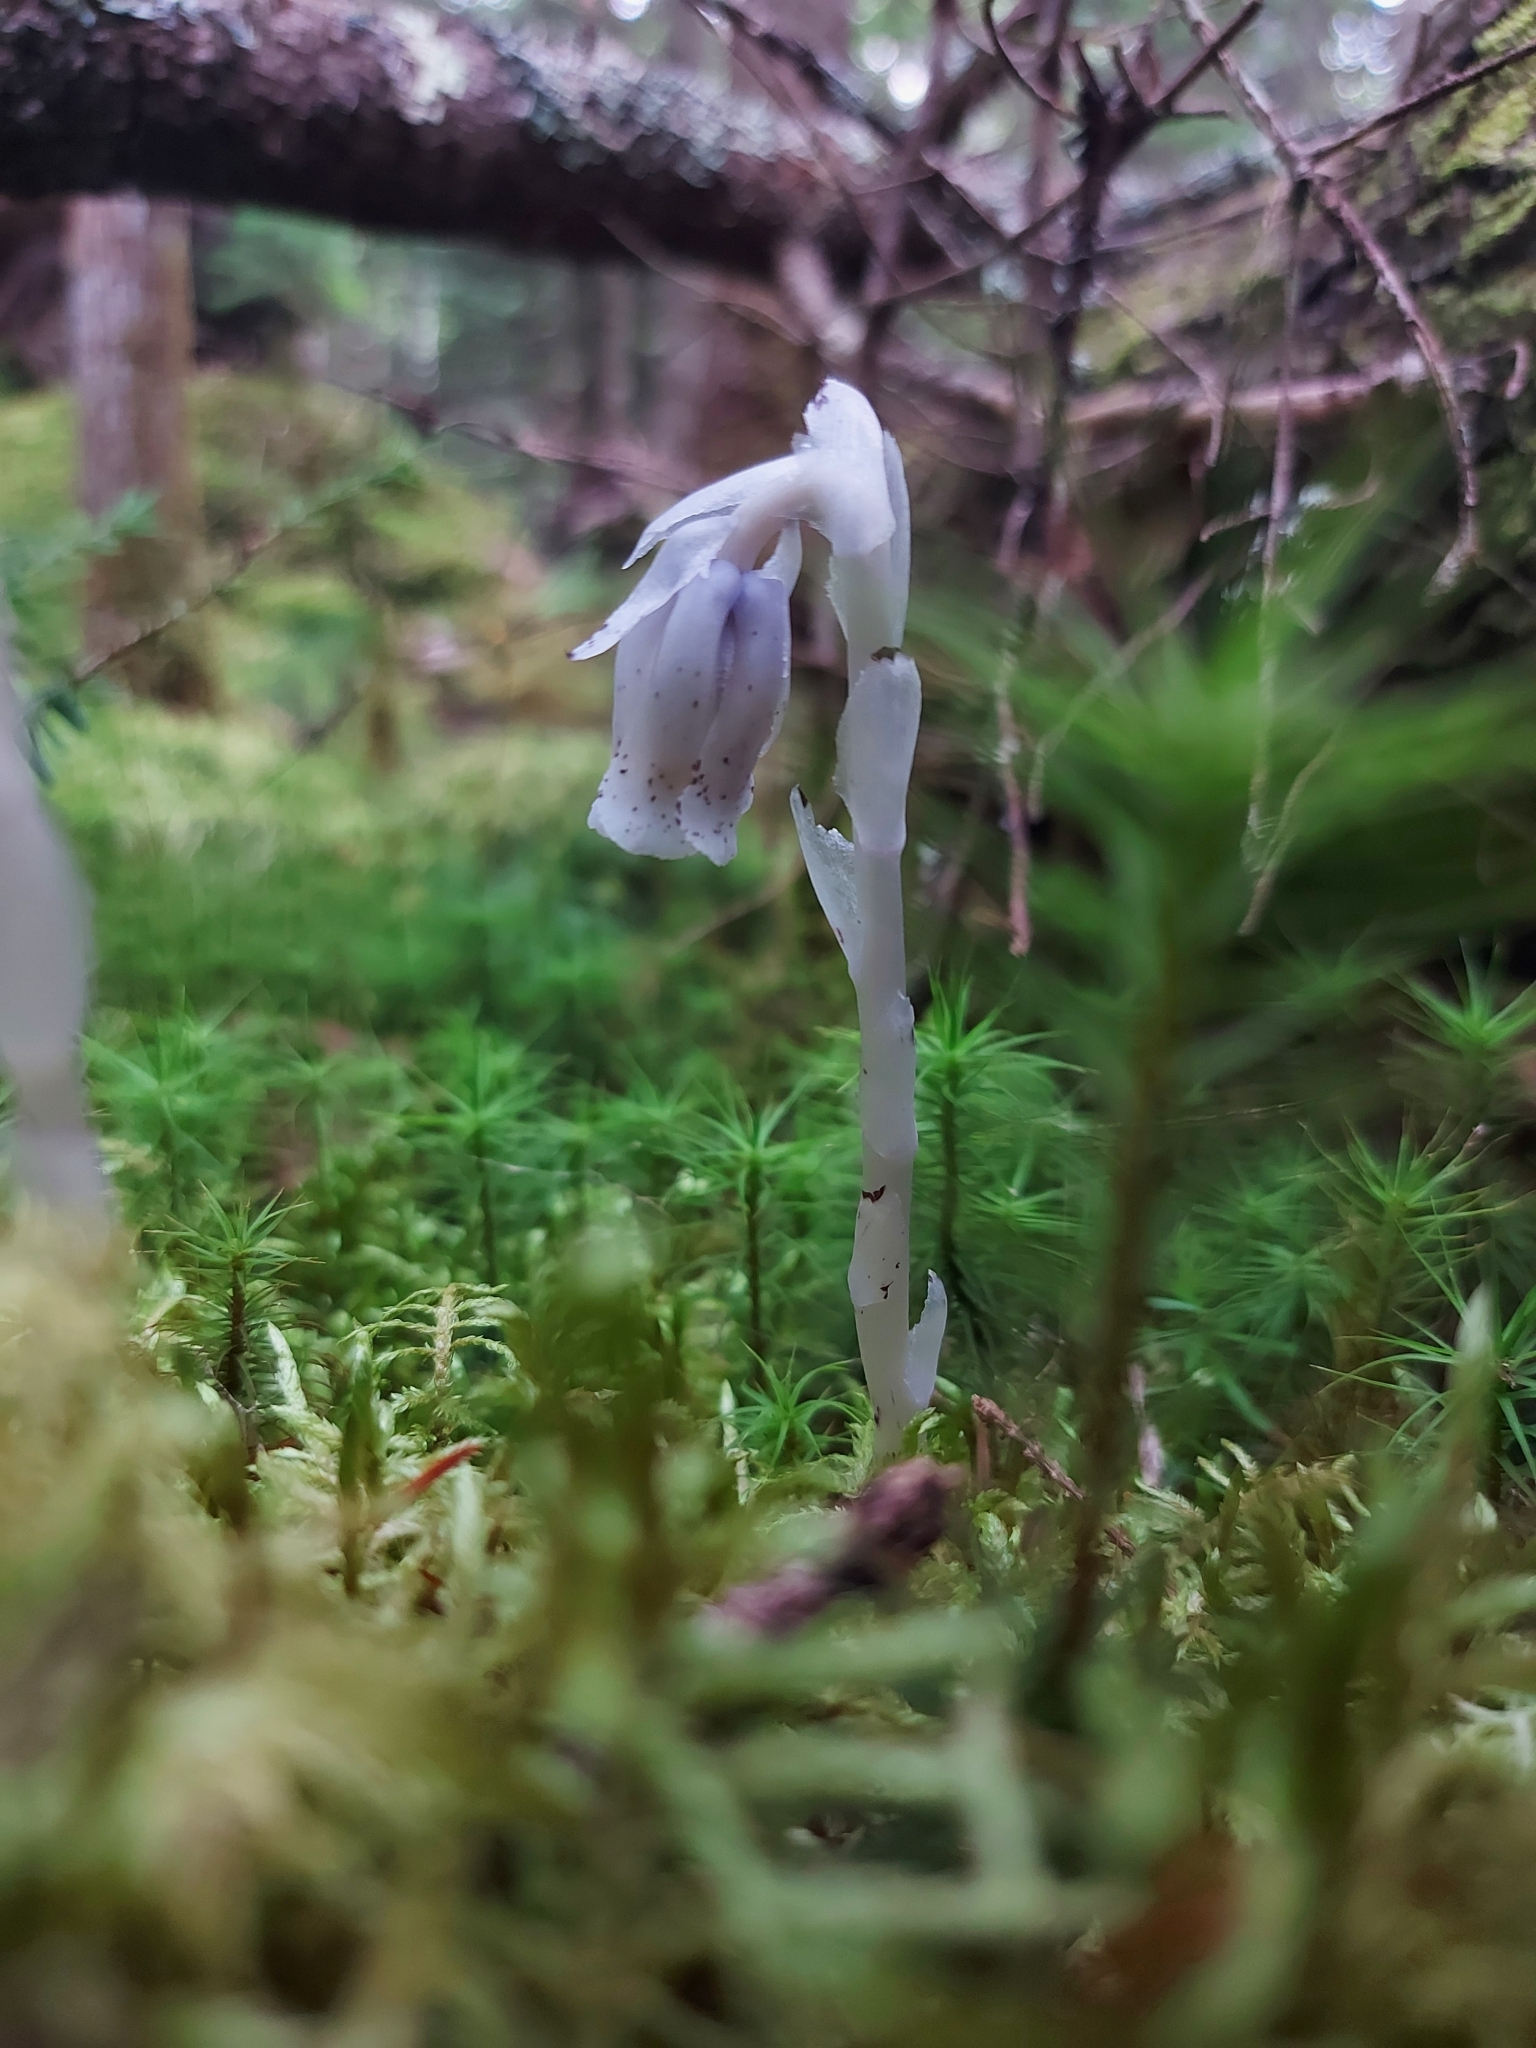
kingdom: Plantae
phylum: Tracheophyta
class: Magnoliopsida
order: Ericales
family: Ericaceae
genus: Monotropa
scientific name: Monotropa uniflora
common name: Convulsion root
